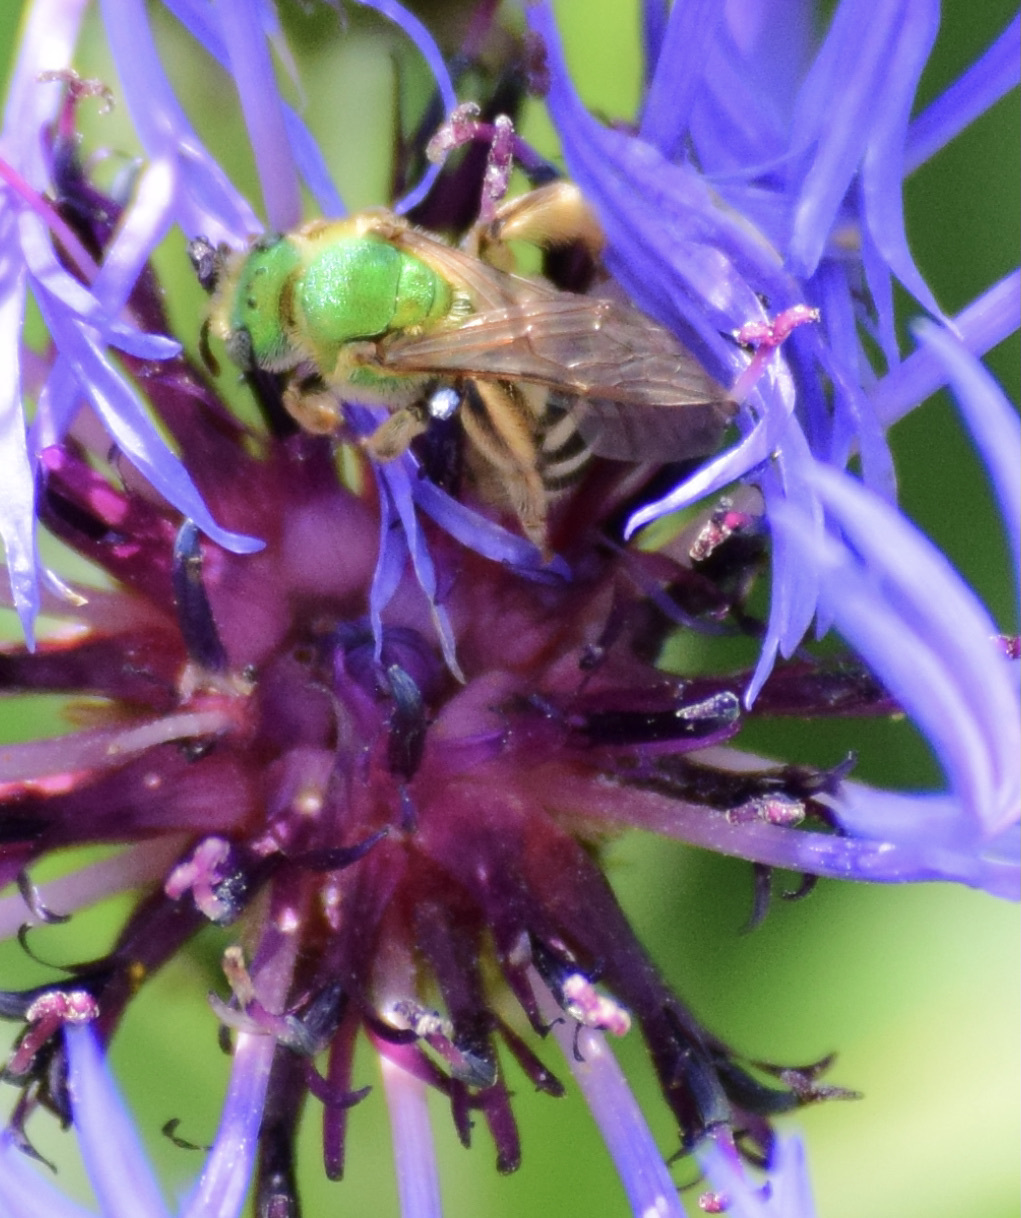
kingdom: Animalia
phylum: Arthropoda
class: Insecta
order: Hymenoptera
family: Halictidae
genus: Agapostemon
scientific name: Agapostemon virescens
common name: Bicolored striped sweat bee
